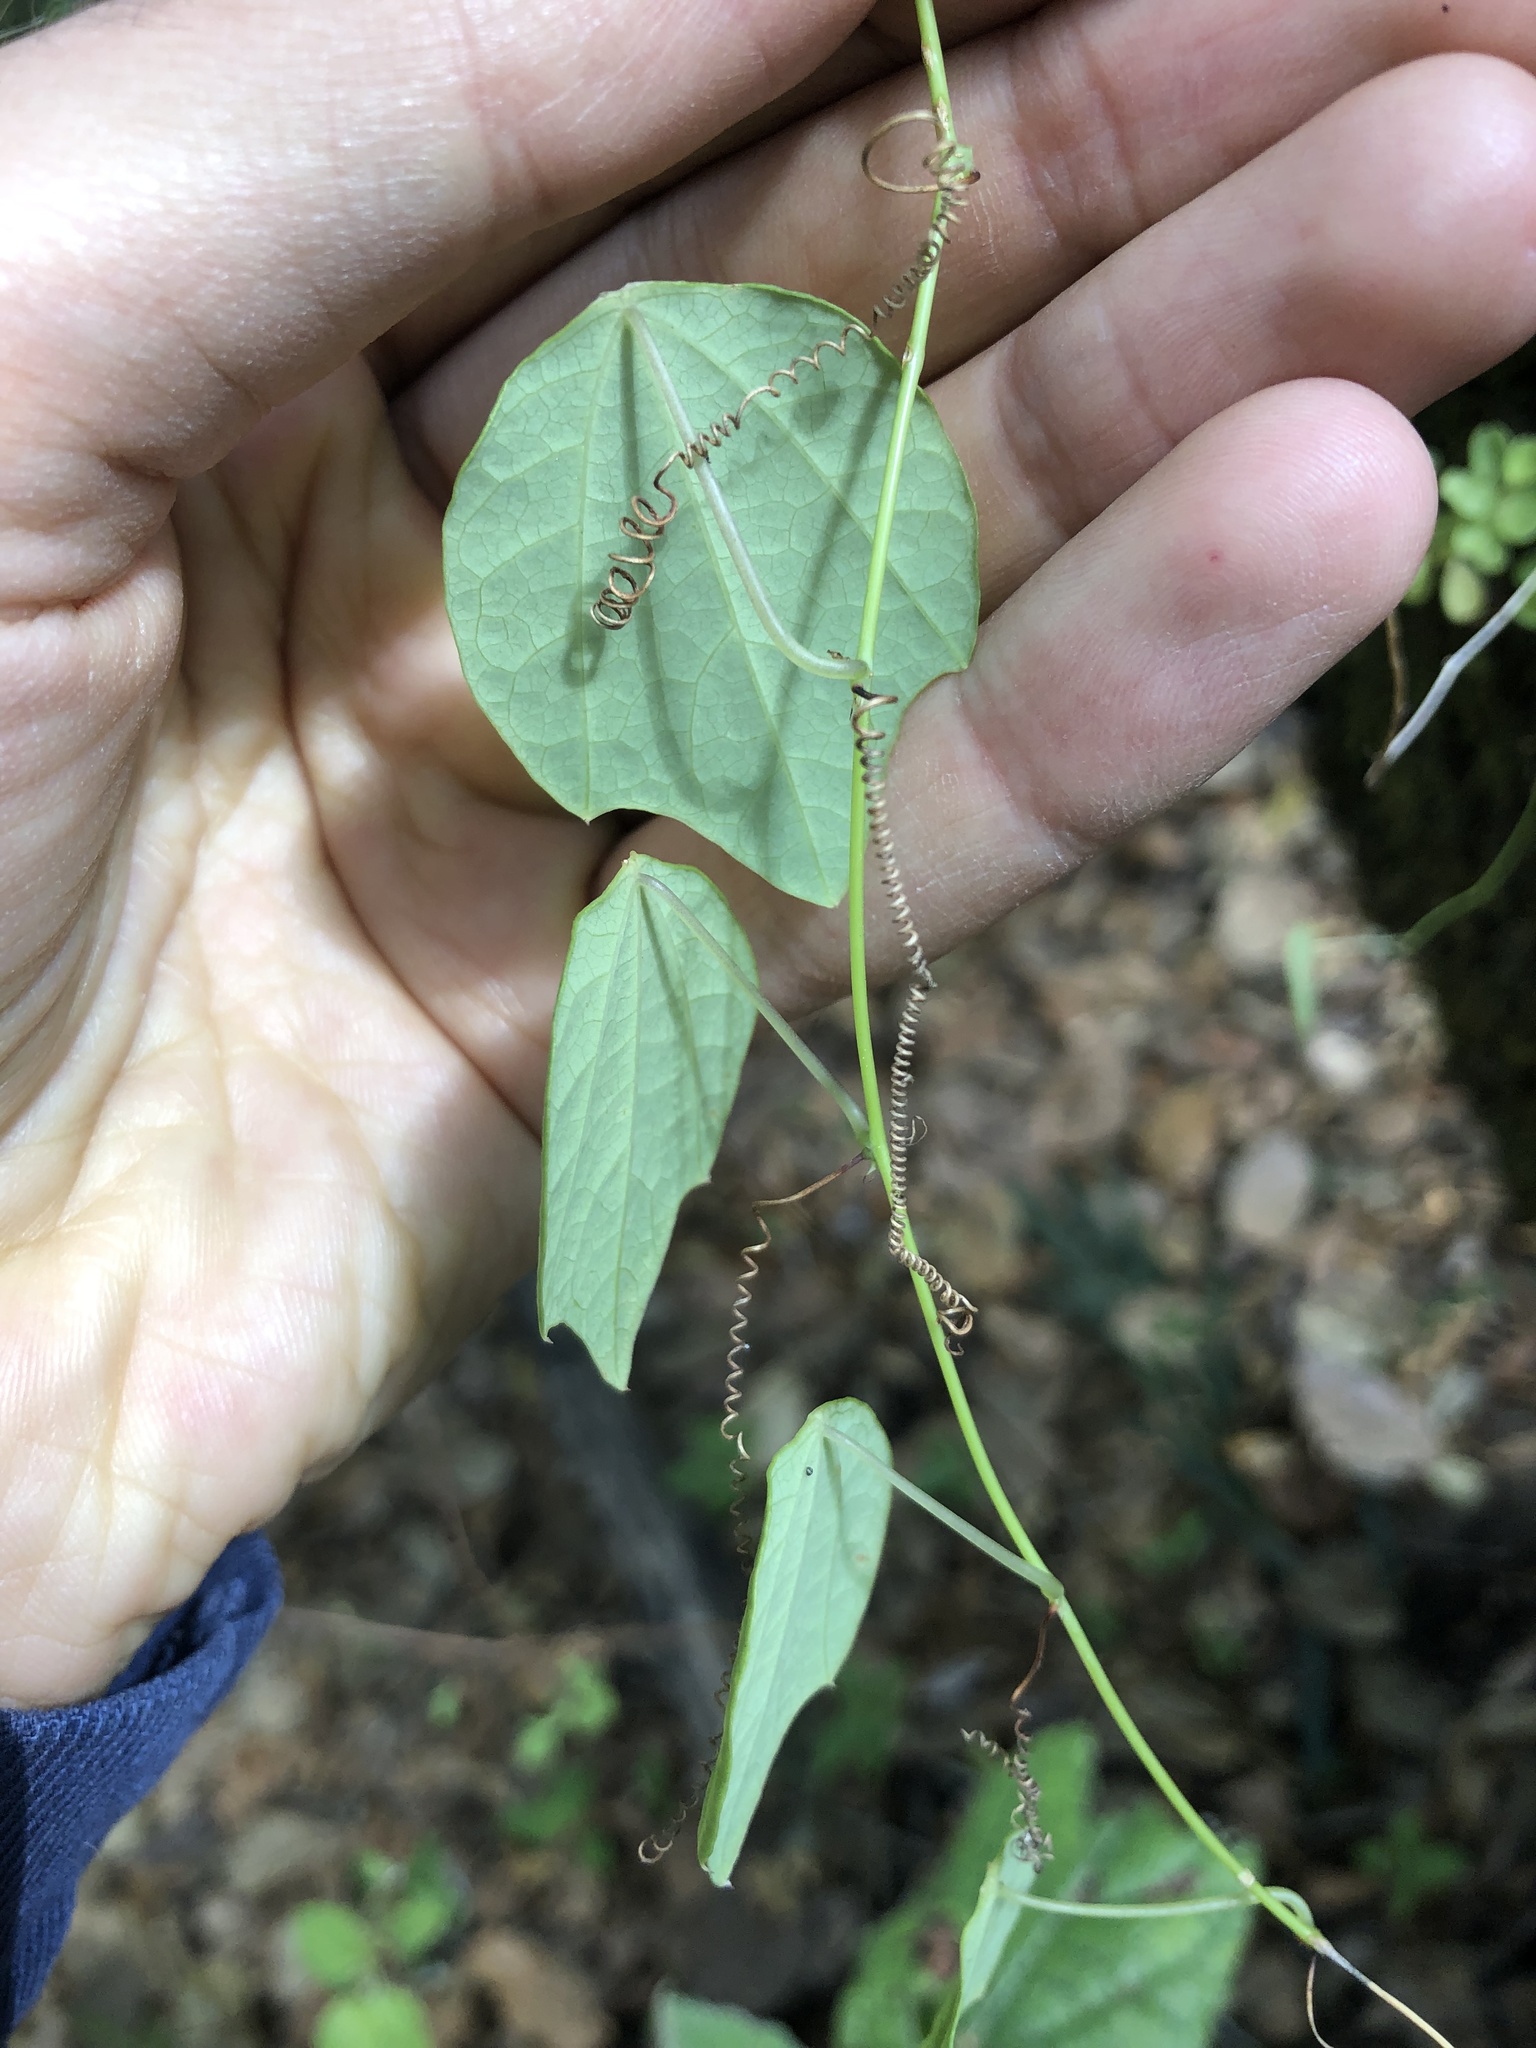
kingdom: Plantae
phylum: Tracheophyta
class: Magnoliopsida
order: Malpighiales
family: Passifloraceae
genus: Passiflora
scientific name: Passiflora membranacea
